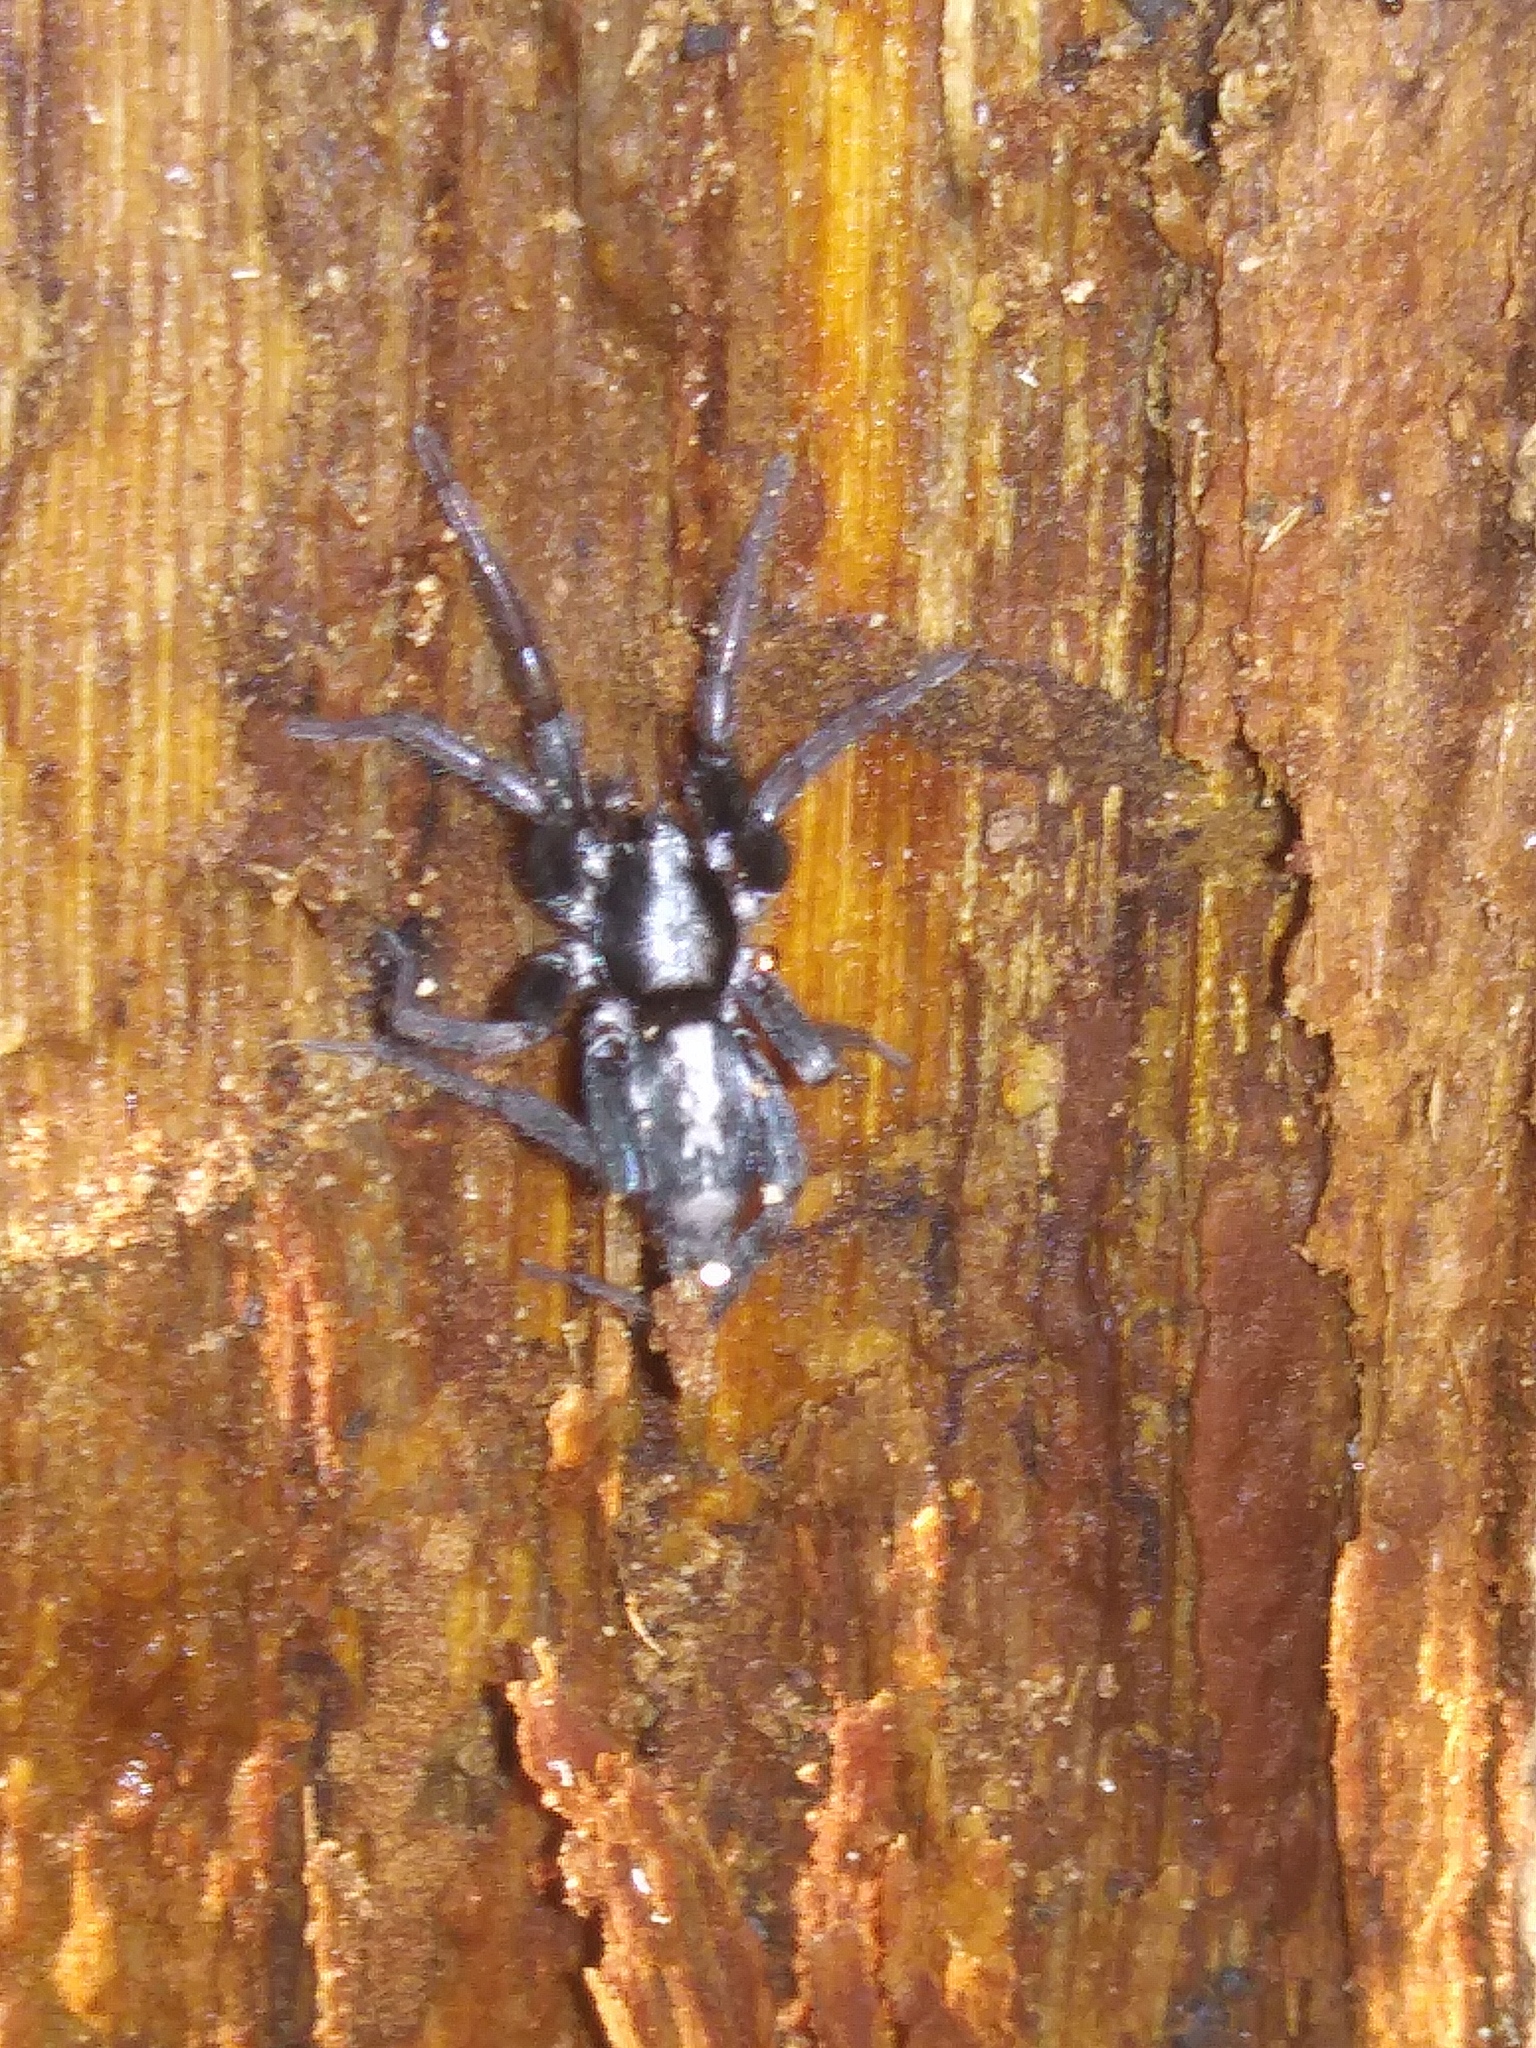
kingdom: Animalia
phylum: Arthropoda
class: Arachnida
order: Araneae
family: Gnaphosidae
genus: Herpyllus
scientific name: Herpyllus ecclesiasticus
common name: Eastern parson spider
